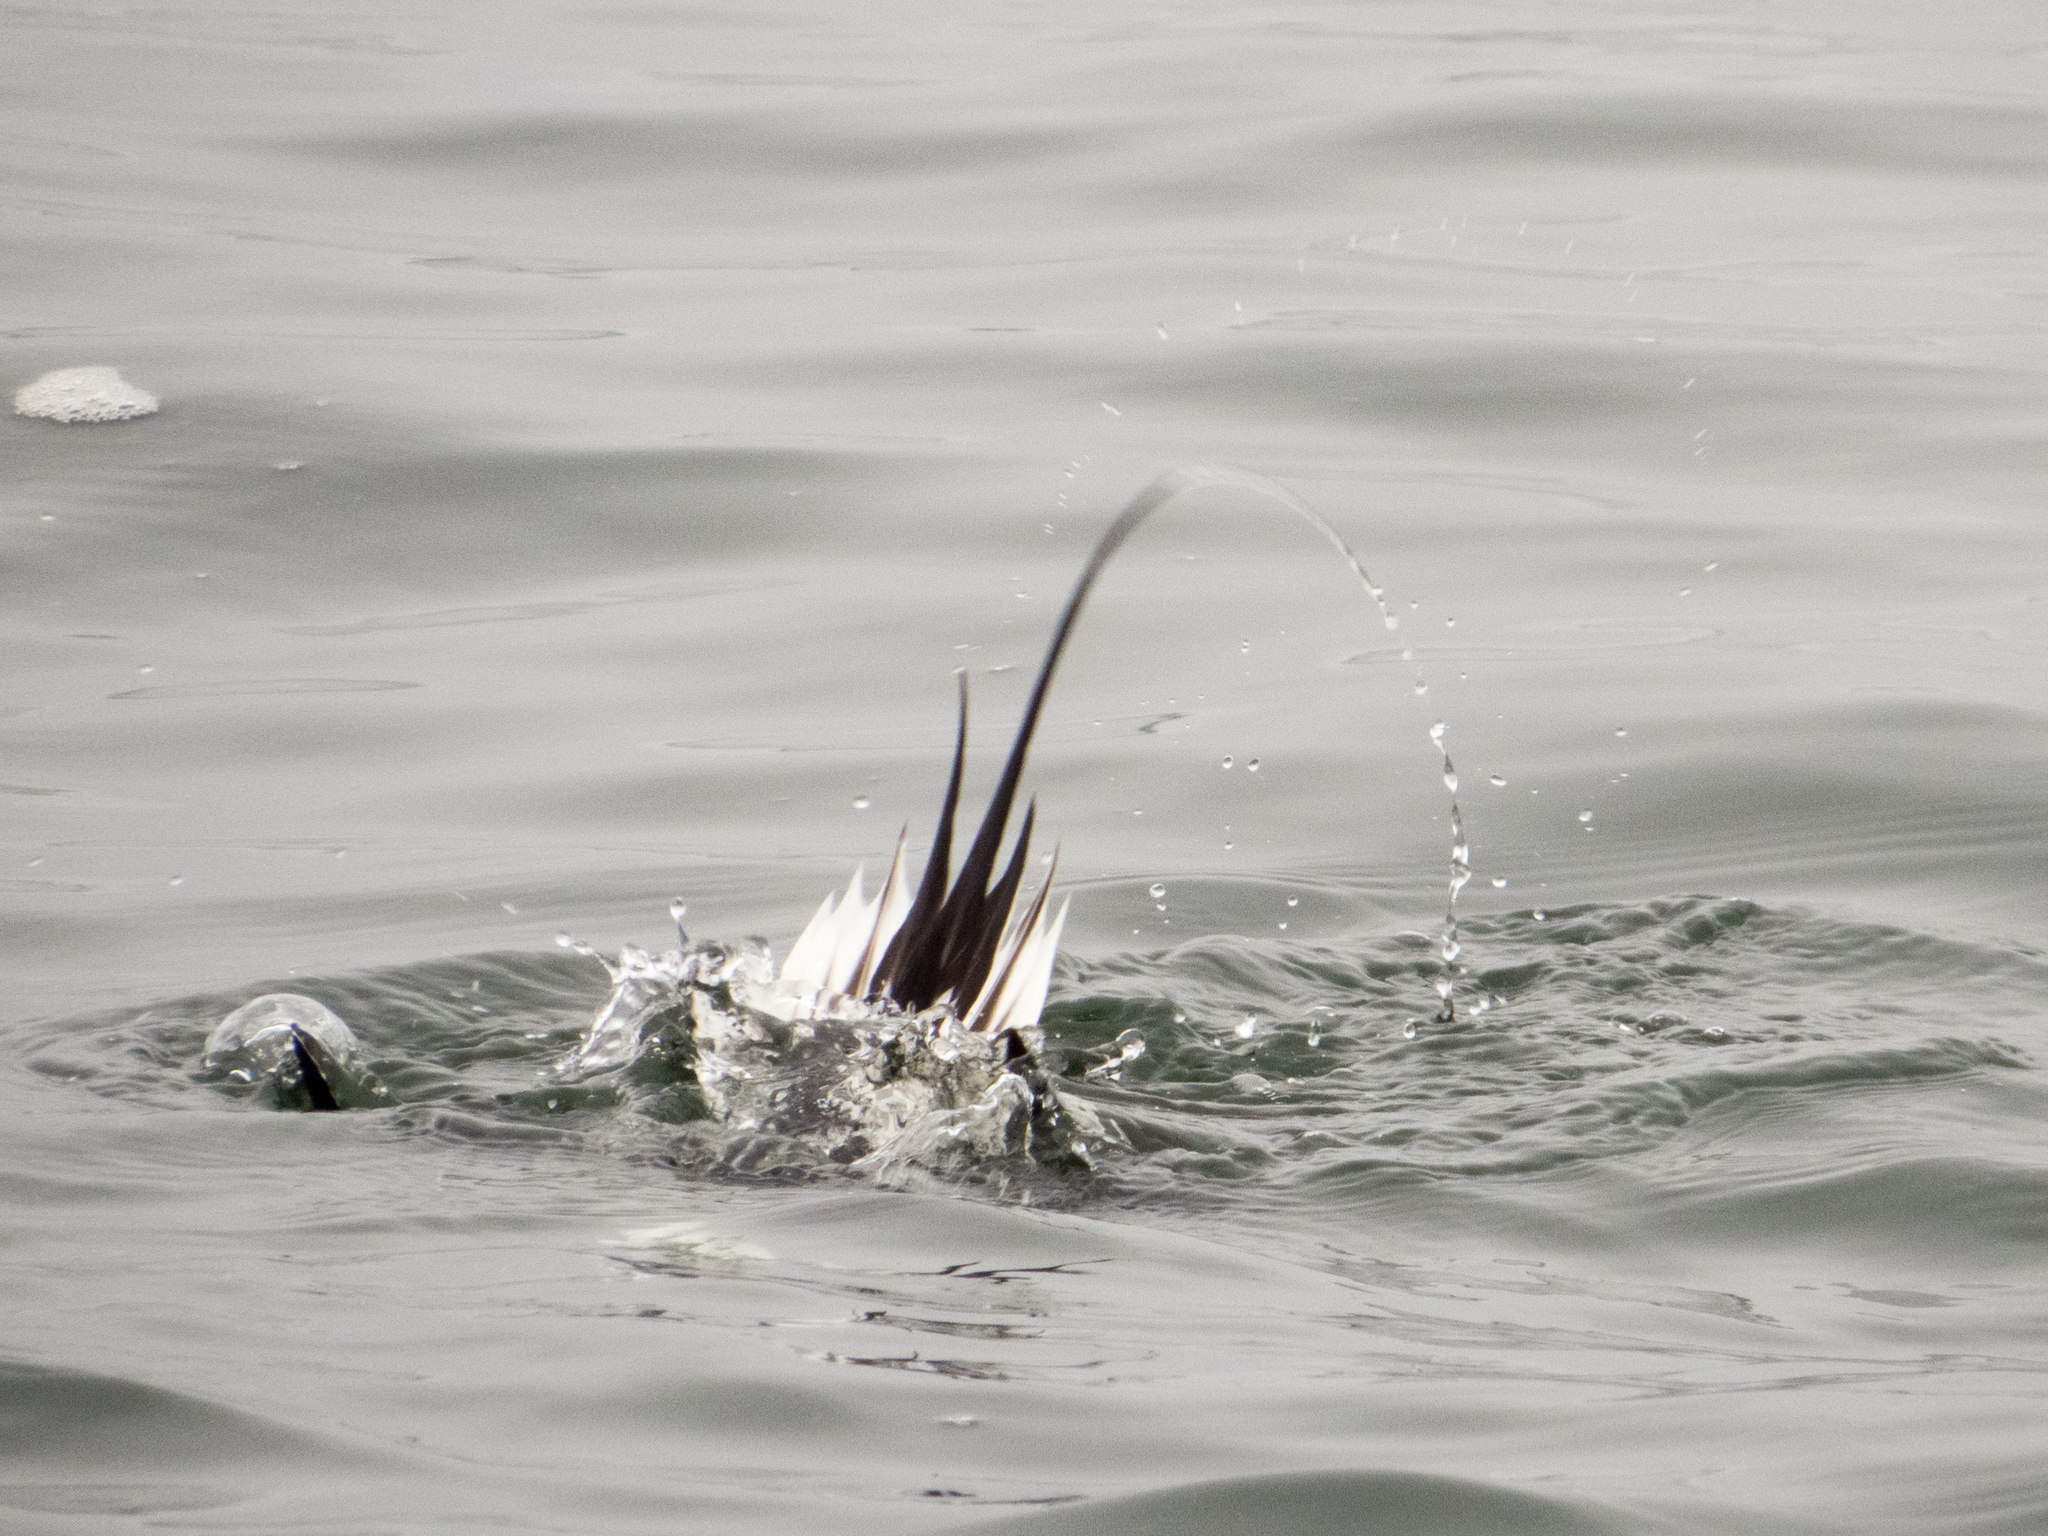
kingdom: Animalia
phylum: Chordata
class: Aves
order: Anseriformes
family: Anatidae
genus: Clangula
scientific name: Clangula hyemalis
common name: Long-tailed duck
